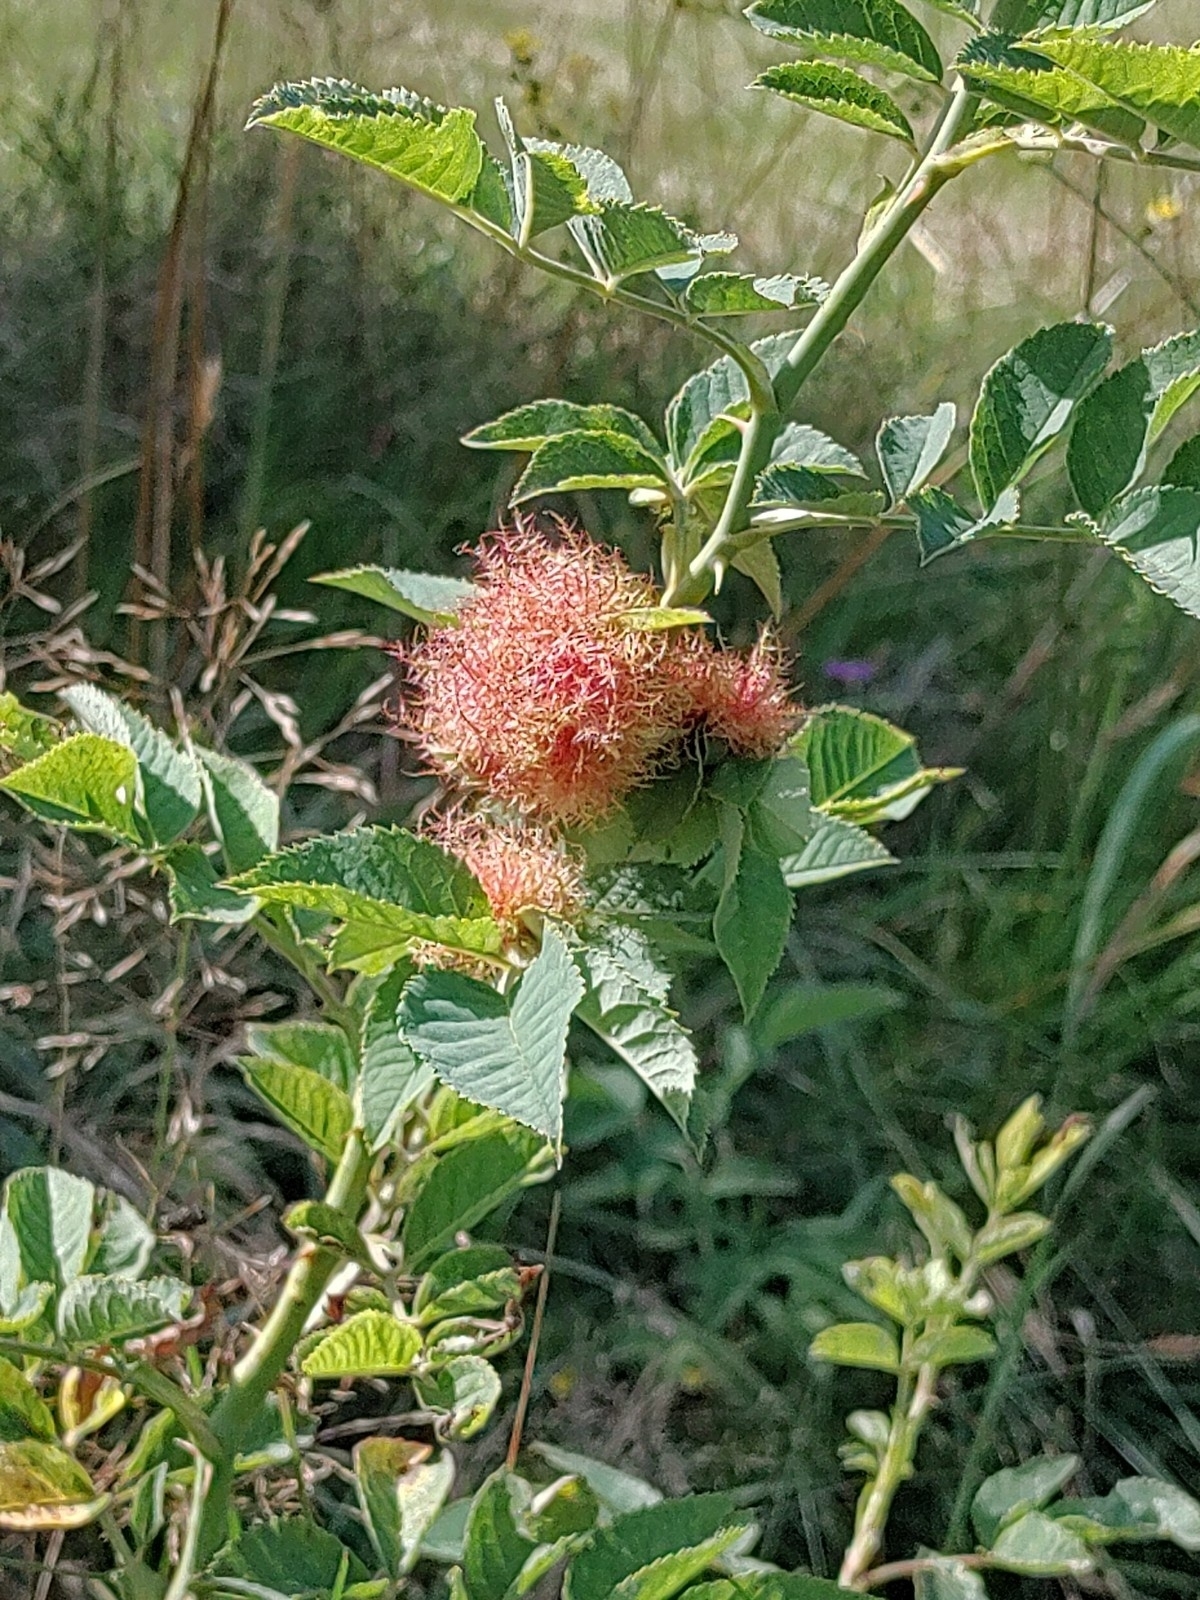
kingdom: Animalia
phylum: Arthropoda
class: Insecta
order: Hymenoptera
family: Cynipidae
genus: Diplolepis
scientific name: Diplolepis rosae
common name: Bedeguar gall
